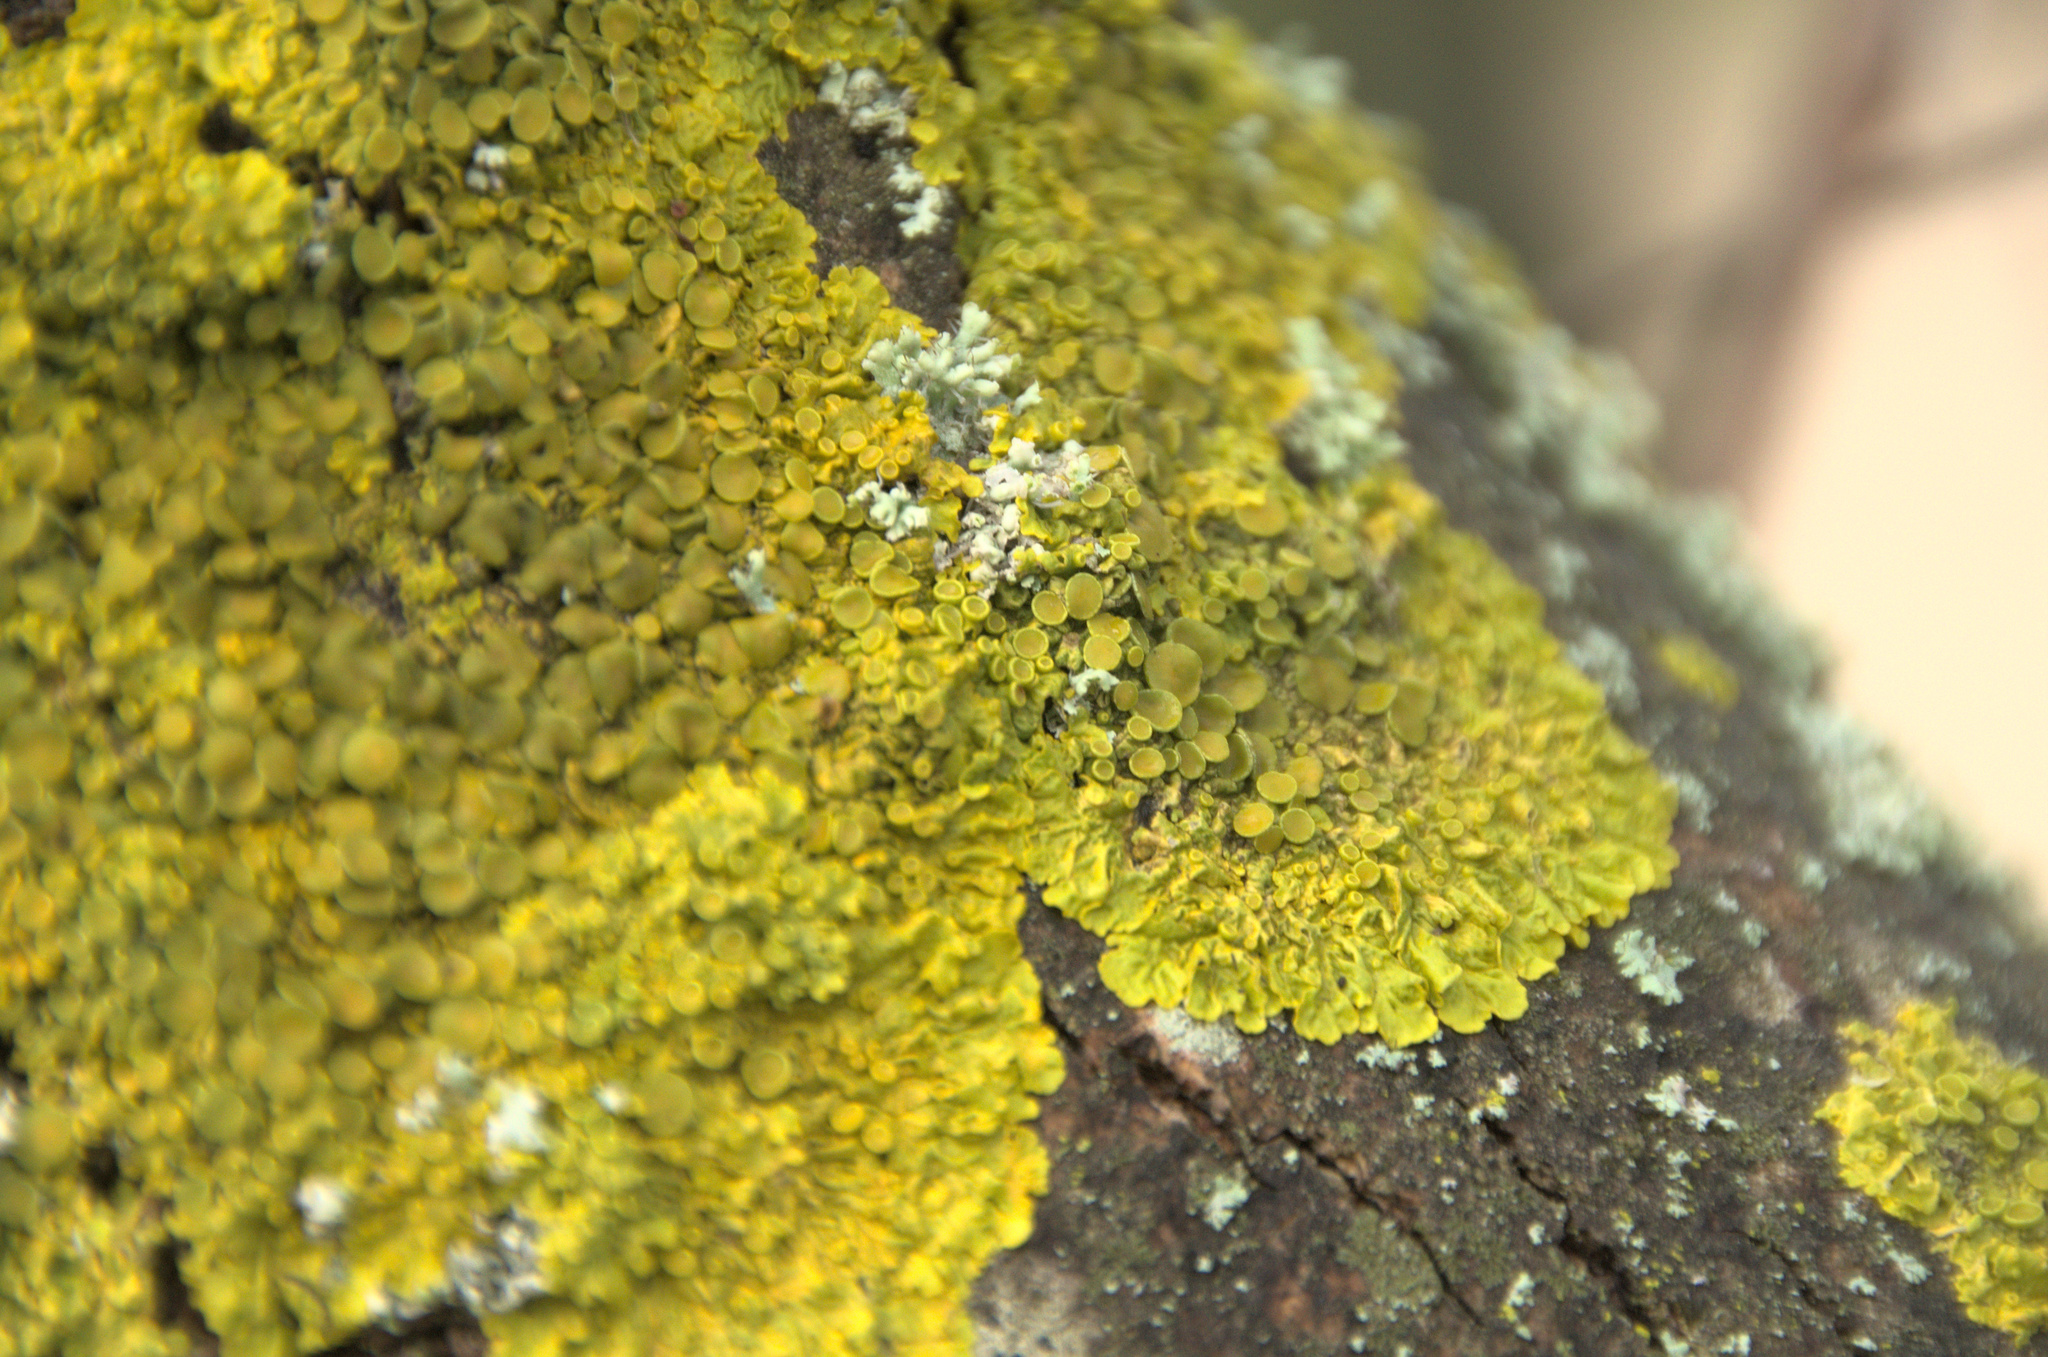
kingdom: Fungi
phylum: Ascomycota
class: Lecanoromycetes
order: Teloschistales
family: Teloschistaceae
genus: Xanthoria
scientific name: Xanthoria parietina
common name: Common orange lichen
